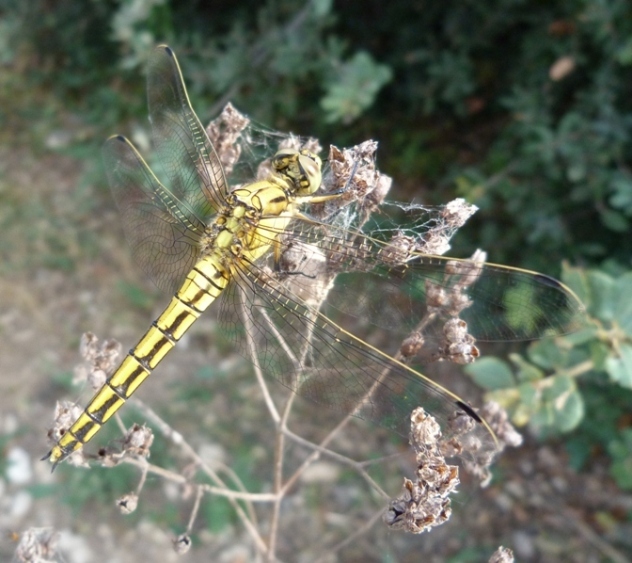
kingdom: Animalia
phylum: Arthropoda
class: Insecta
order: Odonata
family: Libellulidae
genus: Orthetrum
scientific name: Orthetrum cancellatum
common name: Black-tailed skimmer
